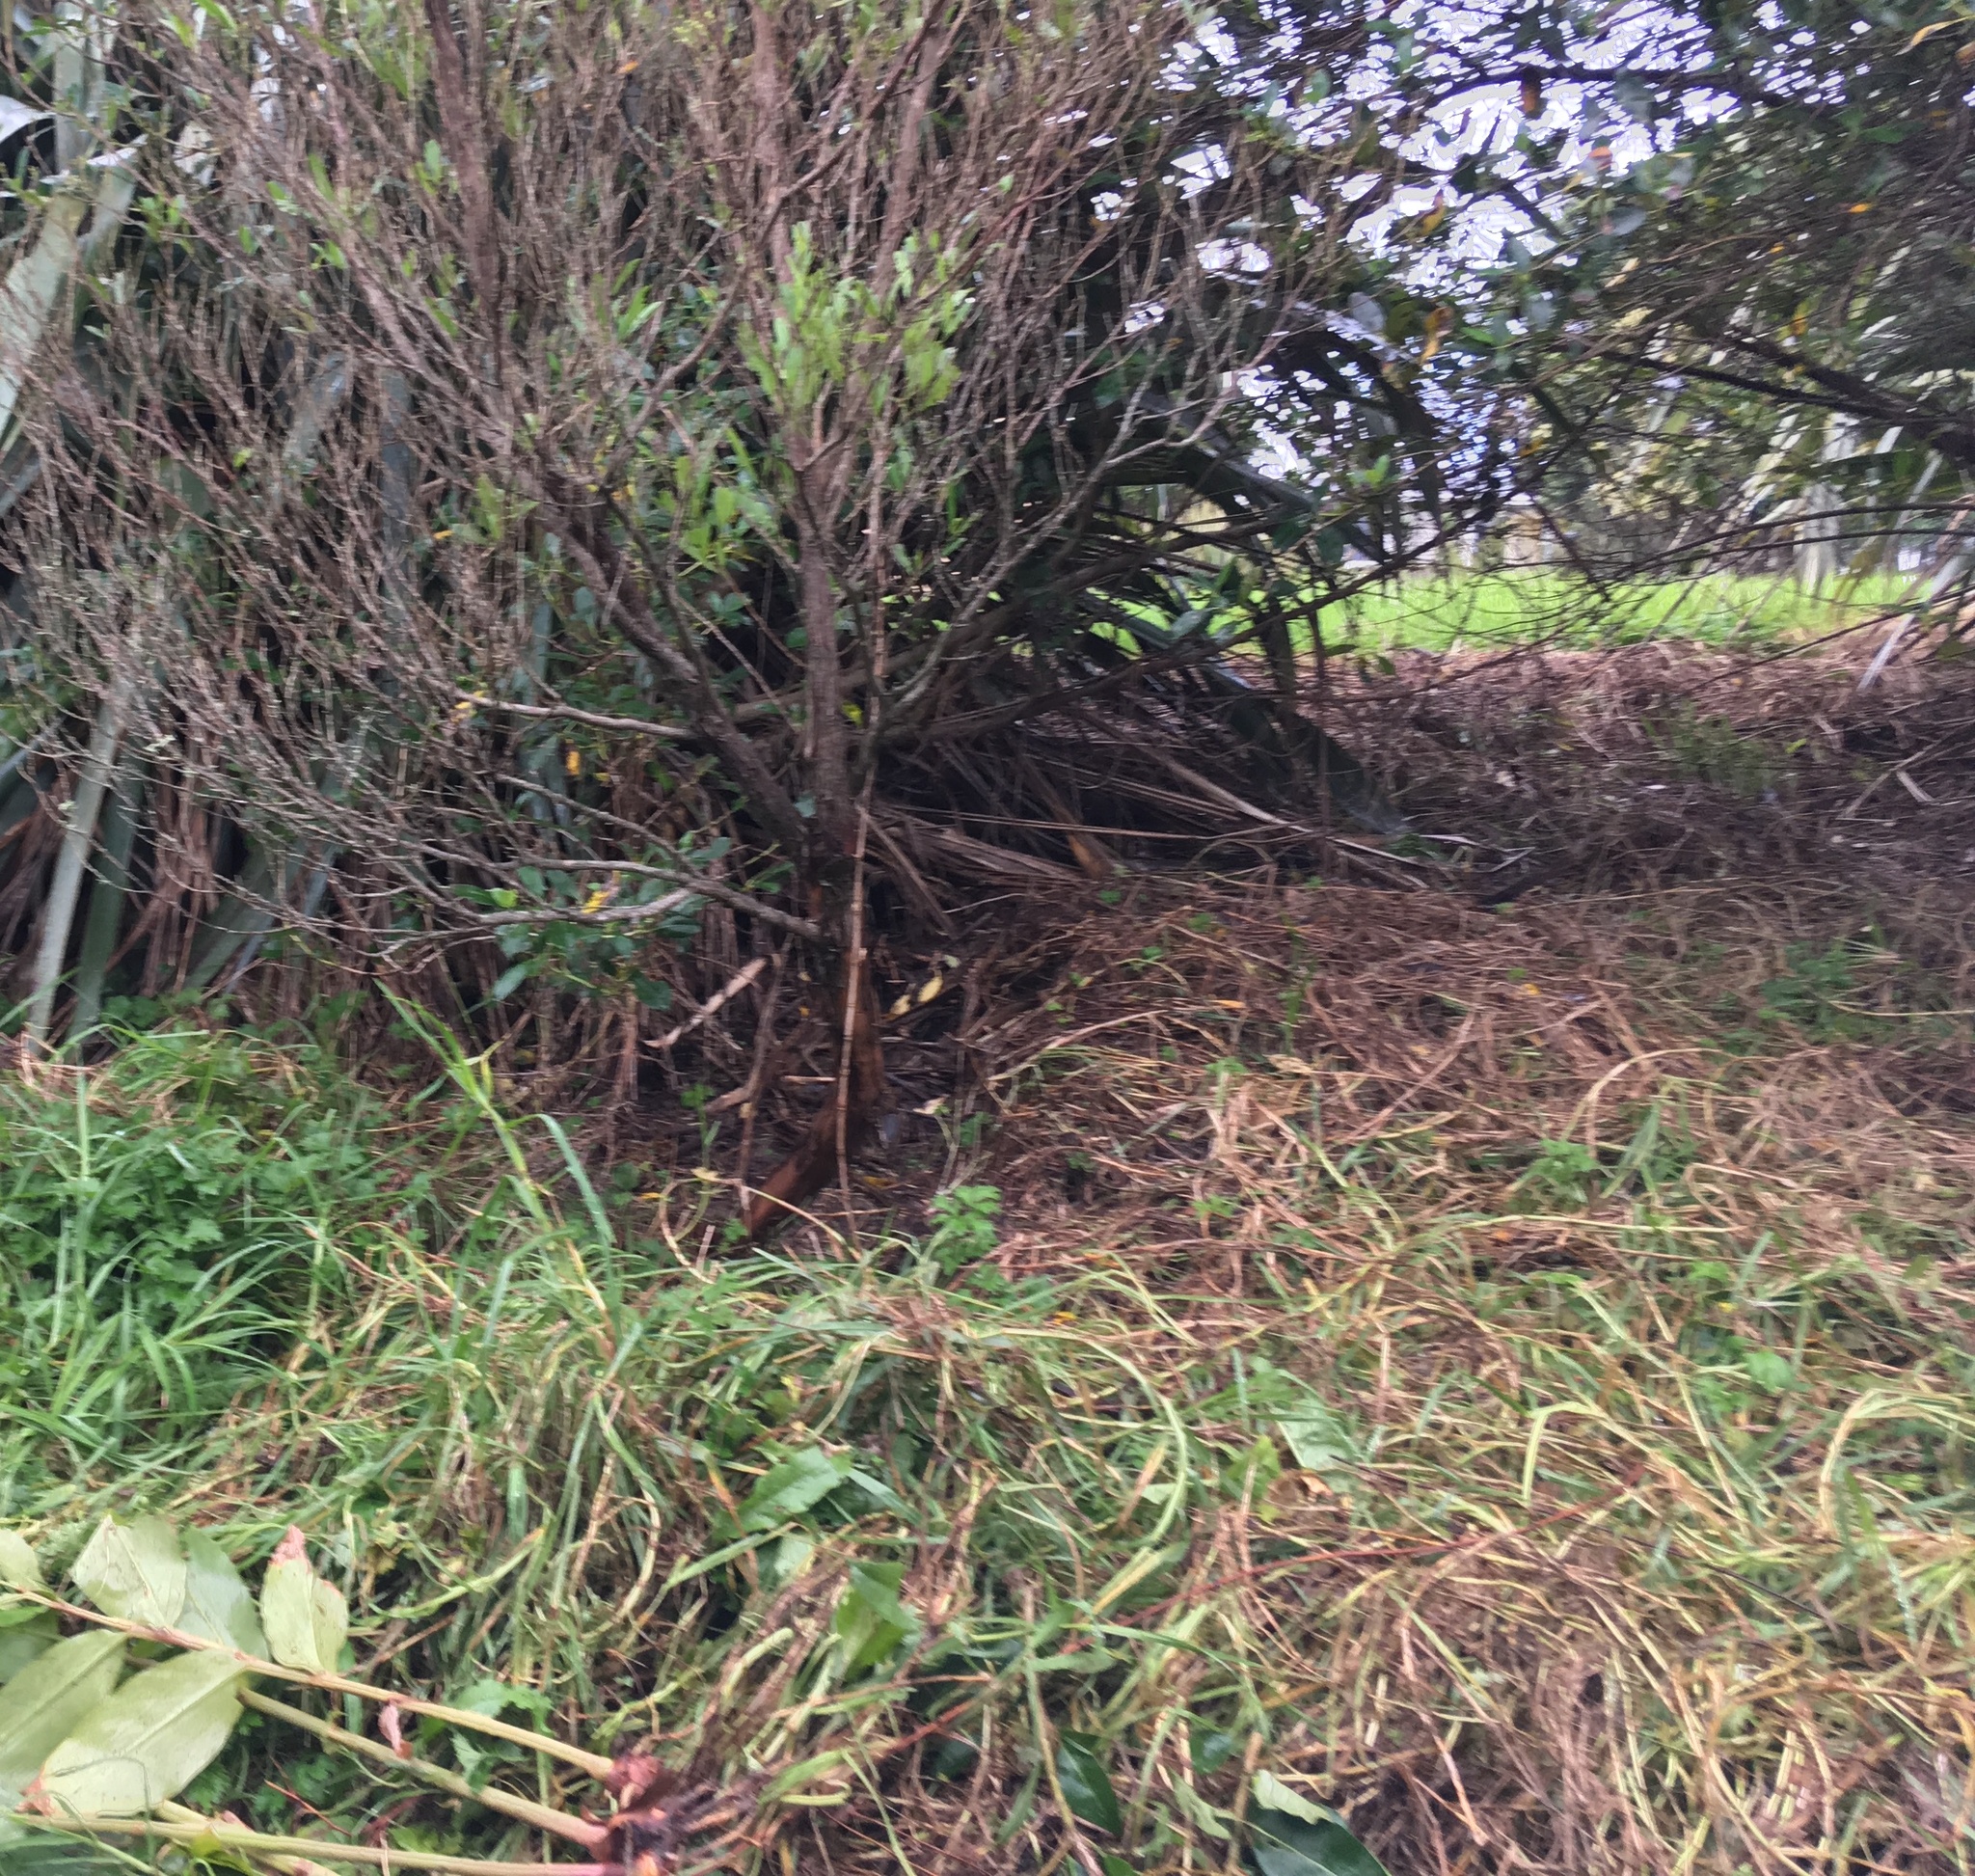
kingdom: Plantae
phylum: Tracheophyta
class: Liliopsida
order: Poales
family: Poaceae
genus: Cenchrus
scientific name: Cenchrus clandestinus
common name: Kikuyugrass
